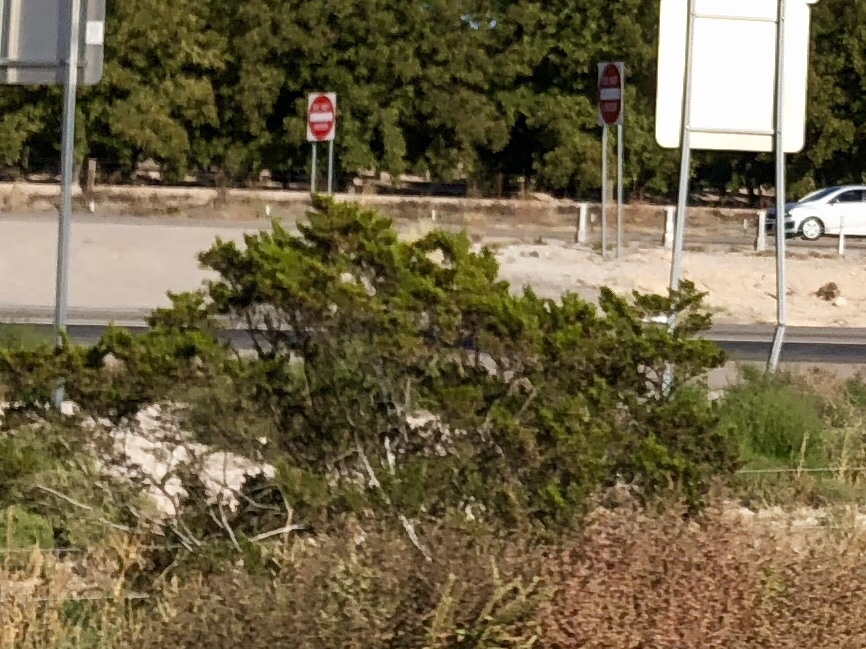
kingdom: Plantae
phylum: Tracheophyta
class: Magnoliopsida
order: Zygophyllales
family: Zygophyllaceae
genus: Larrea
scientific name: Larrea tridentata
